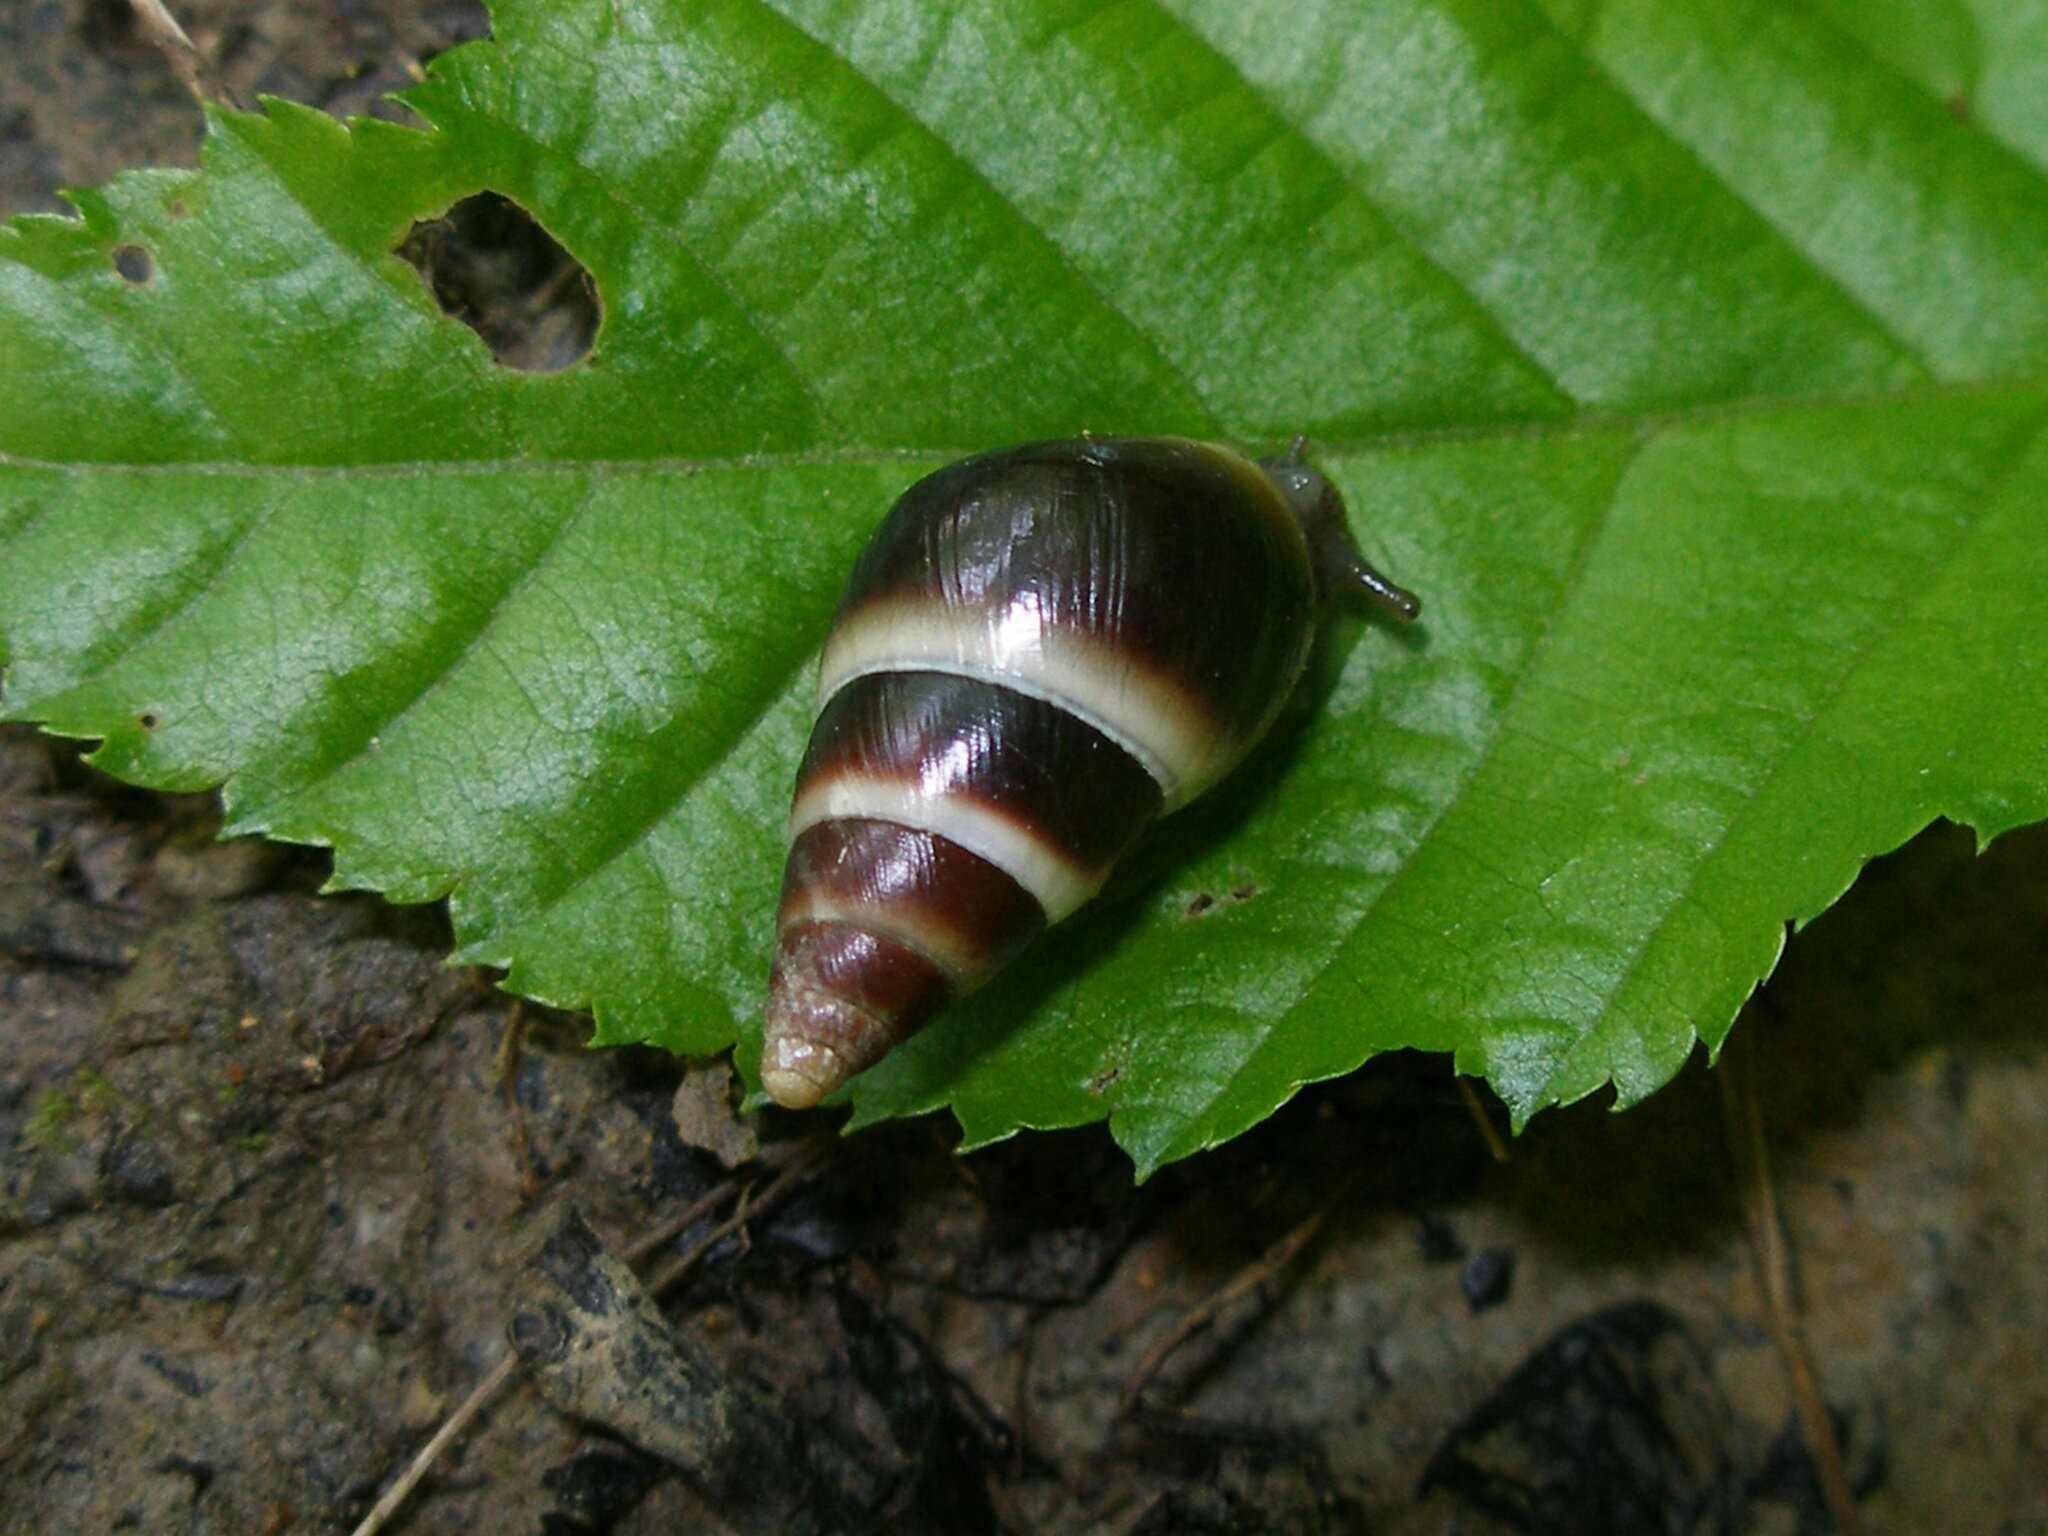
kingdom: Animalia
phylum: Mollusca
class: Gastropoda
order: Stylommatophora
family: Enidae
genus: Caucasicola
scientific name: Caucasicola raddei
